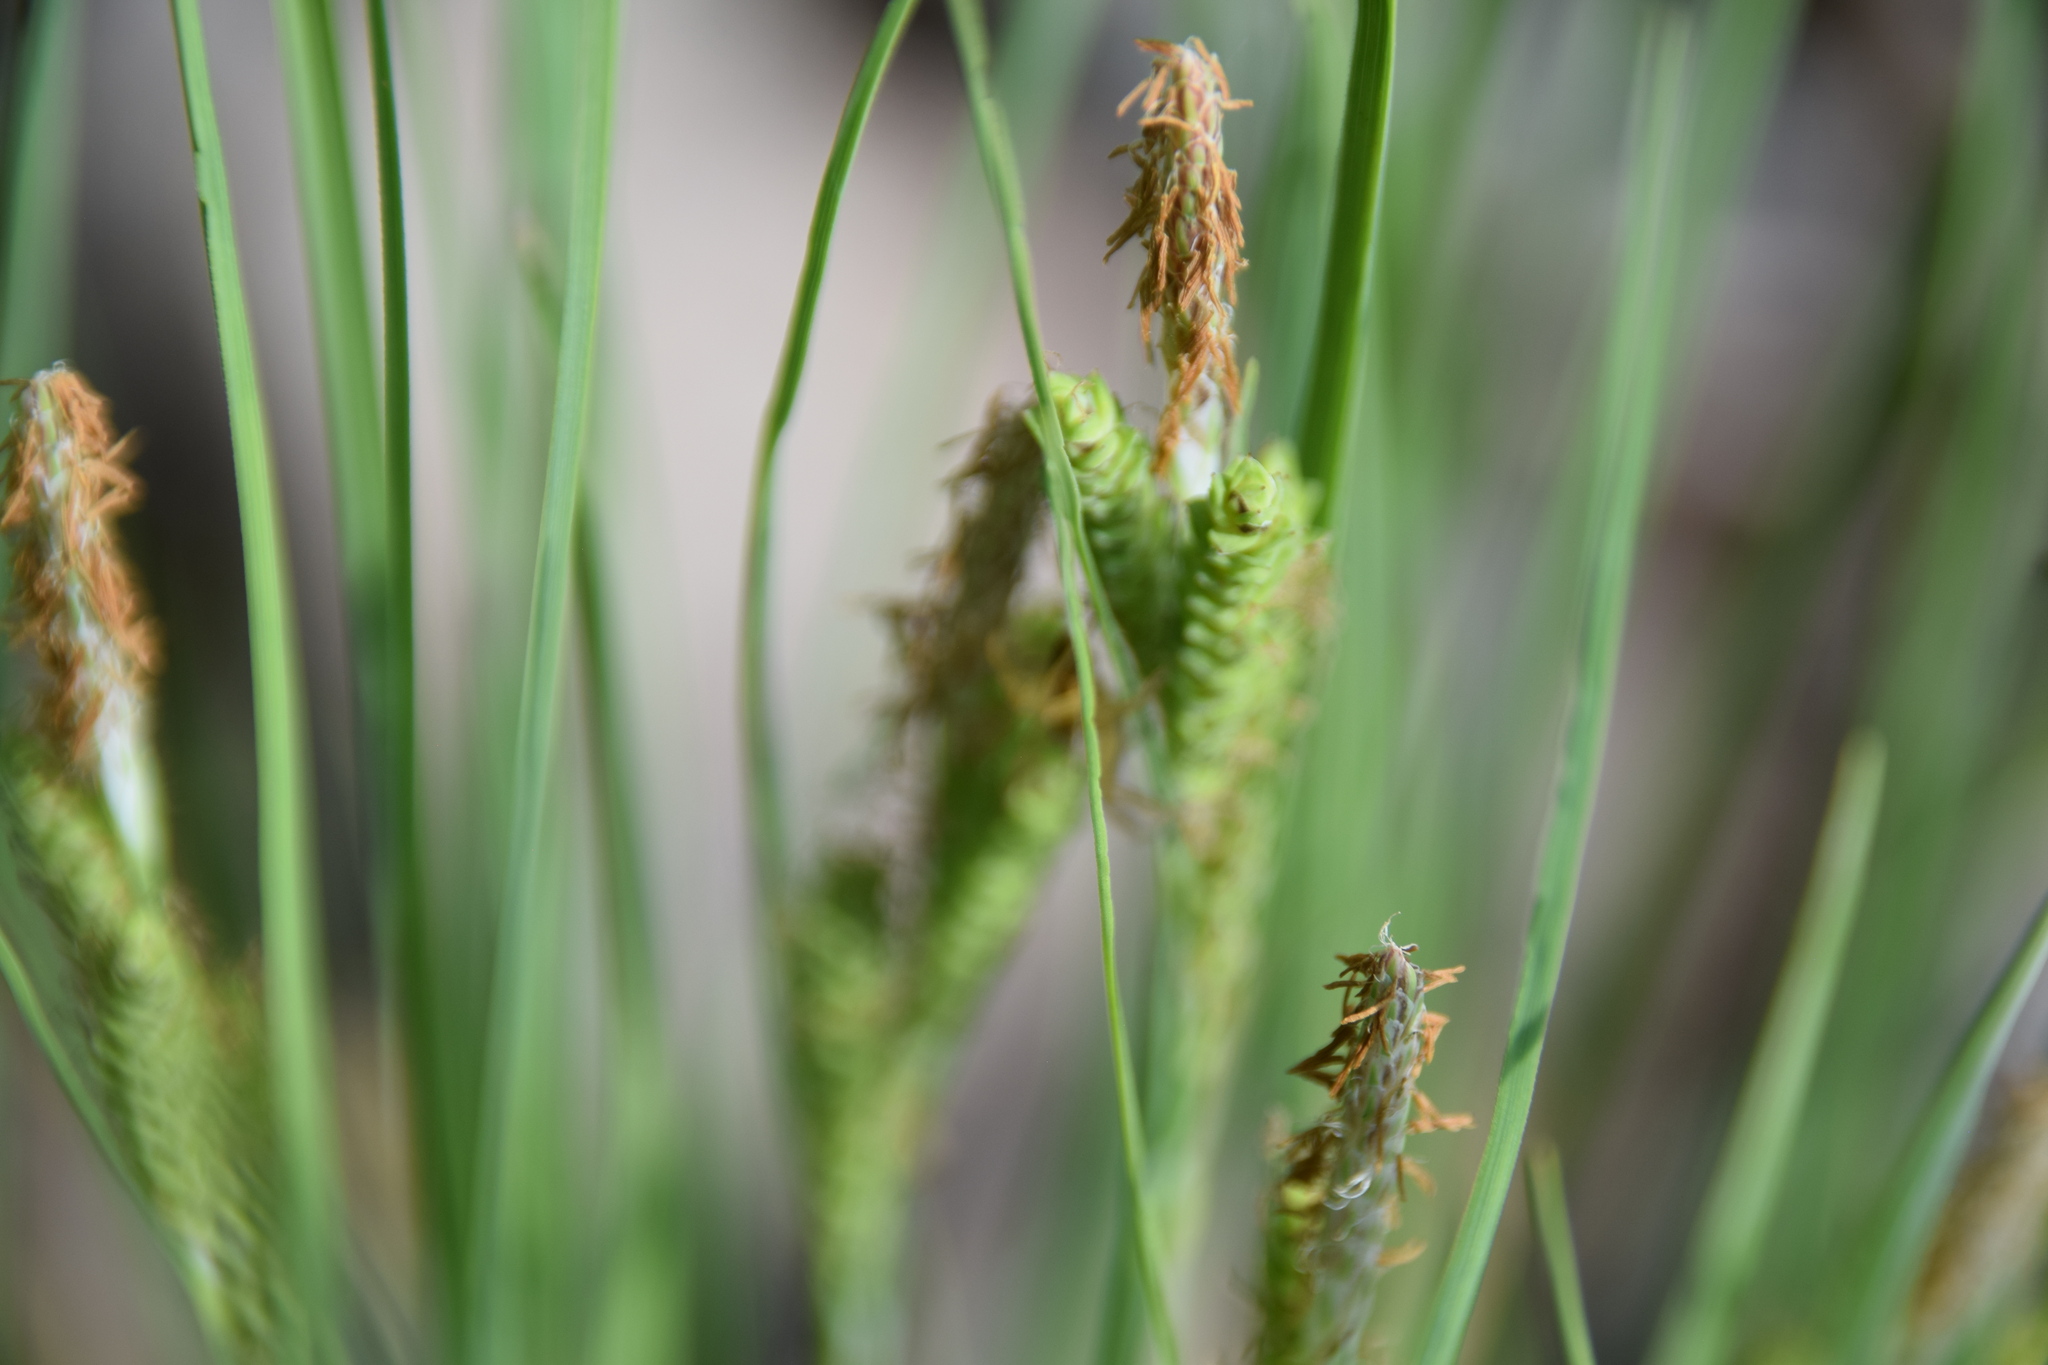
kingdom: Plantae
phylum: Tracheophyta
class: Liliopsida
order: Poales
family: Cyperaceae
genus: Carex
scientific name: Carex lenticularis
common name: Lakeshore sedge
